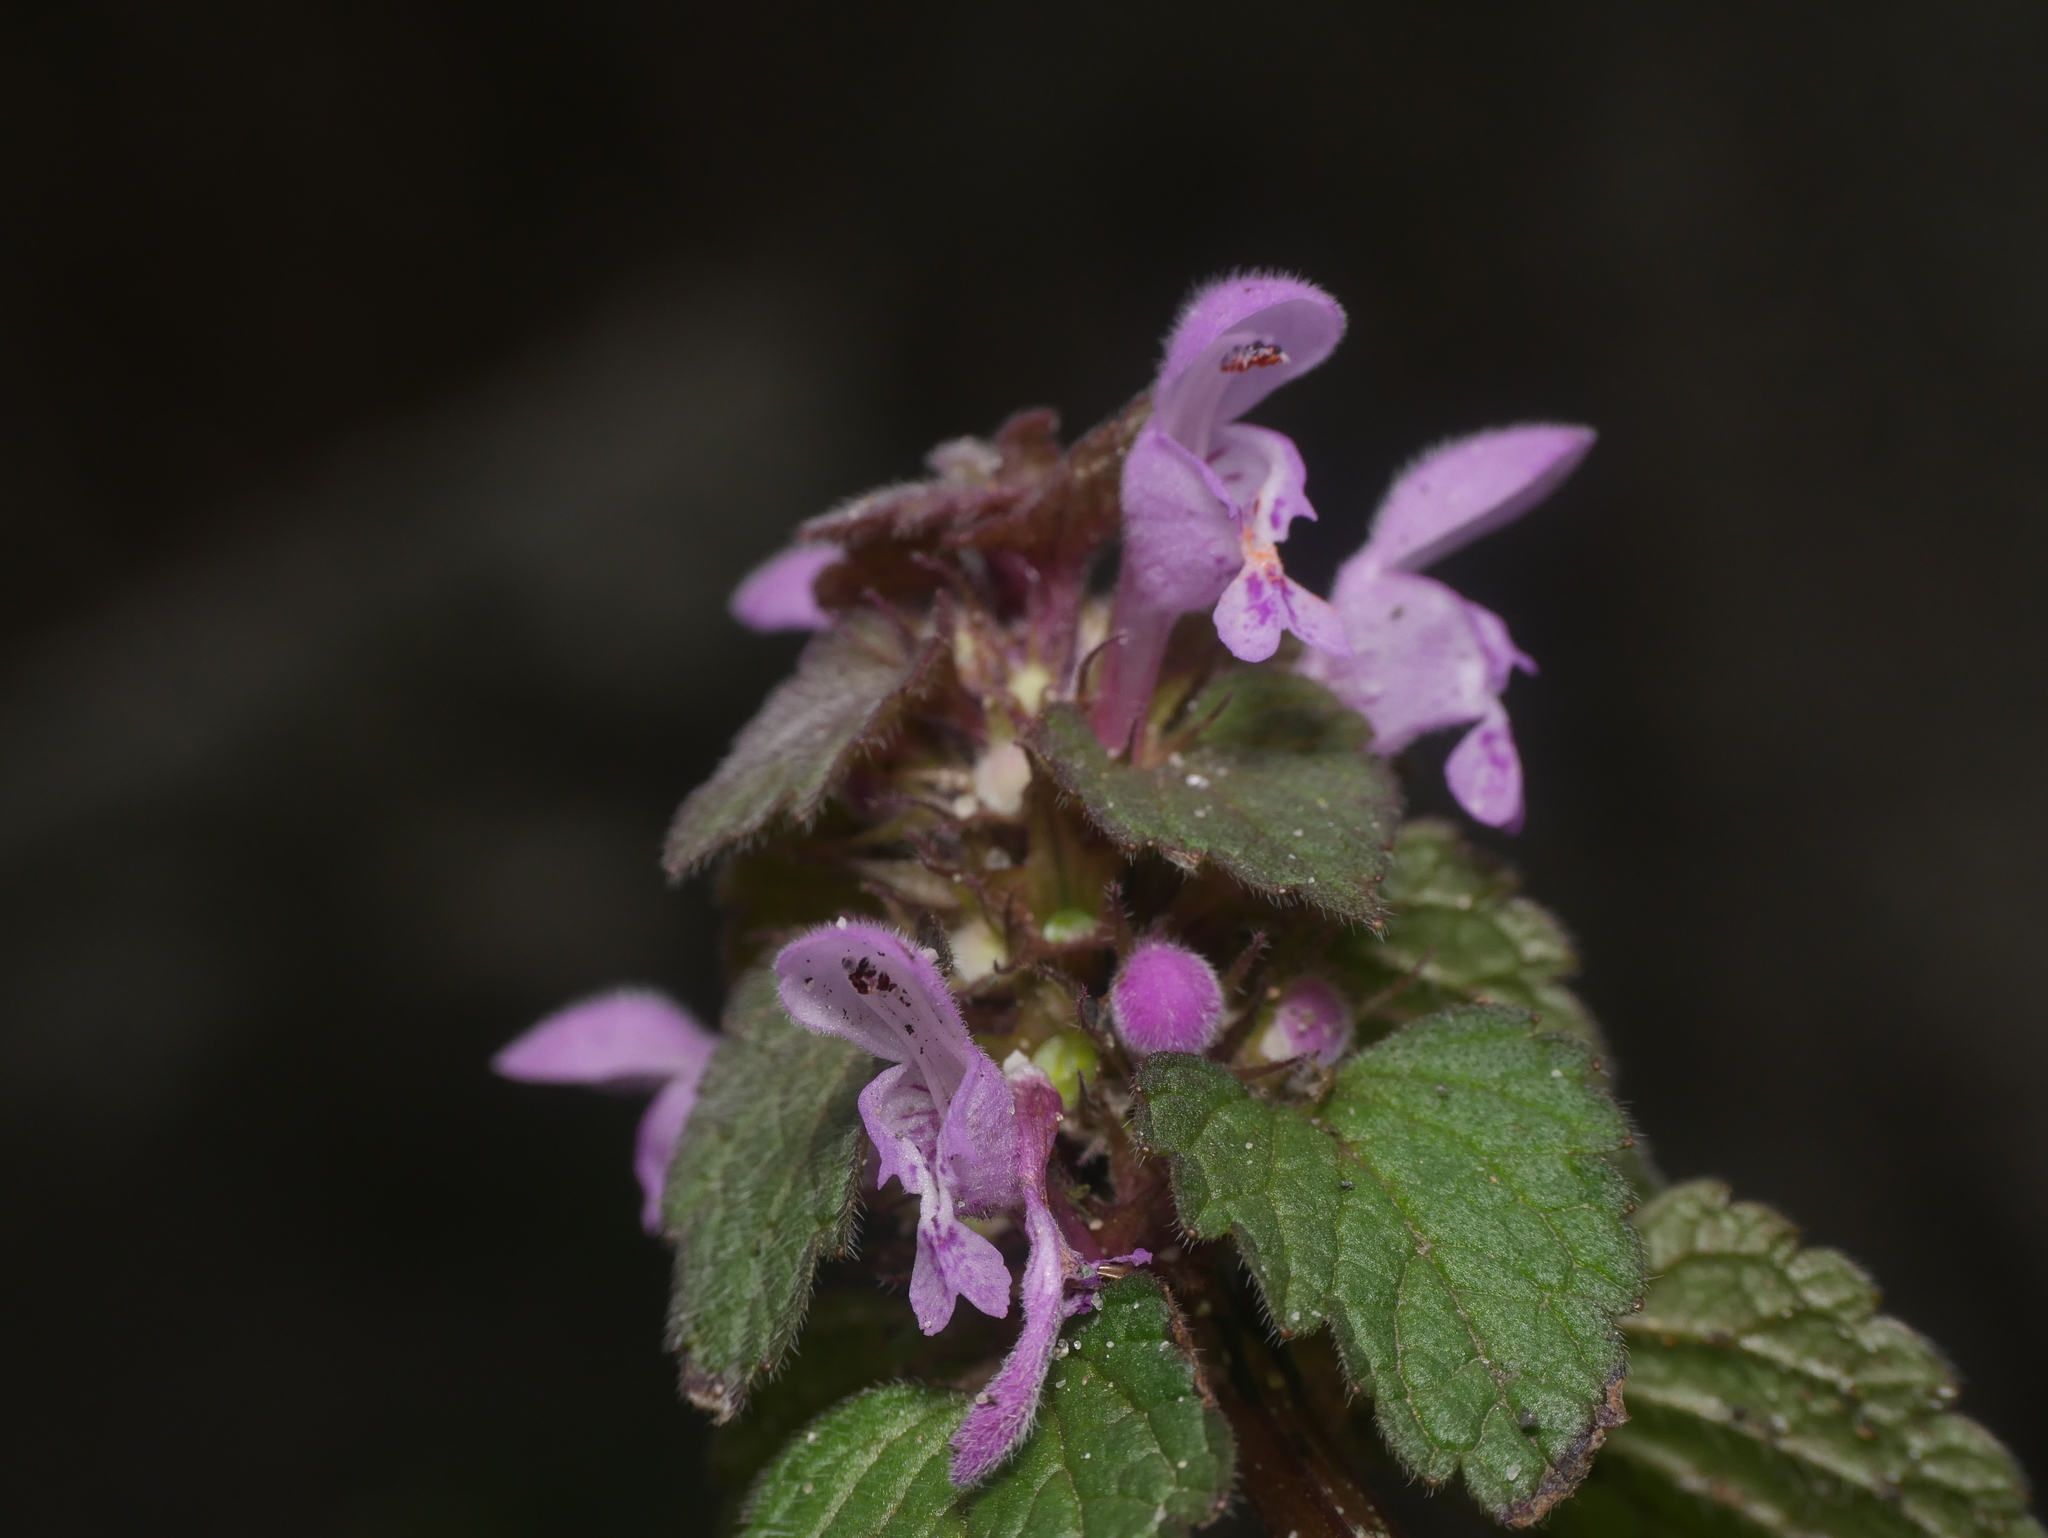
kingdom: Plantae
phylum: Tracheophyta
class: Magnoliopsida
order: Lamiales
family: Lamiaceae
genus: Lamium
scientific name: Lamium purpureum
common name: Red dead-nettle
